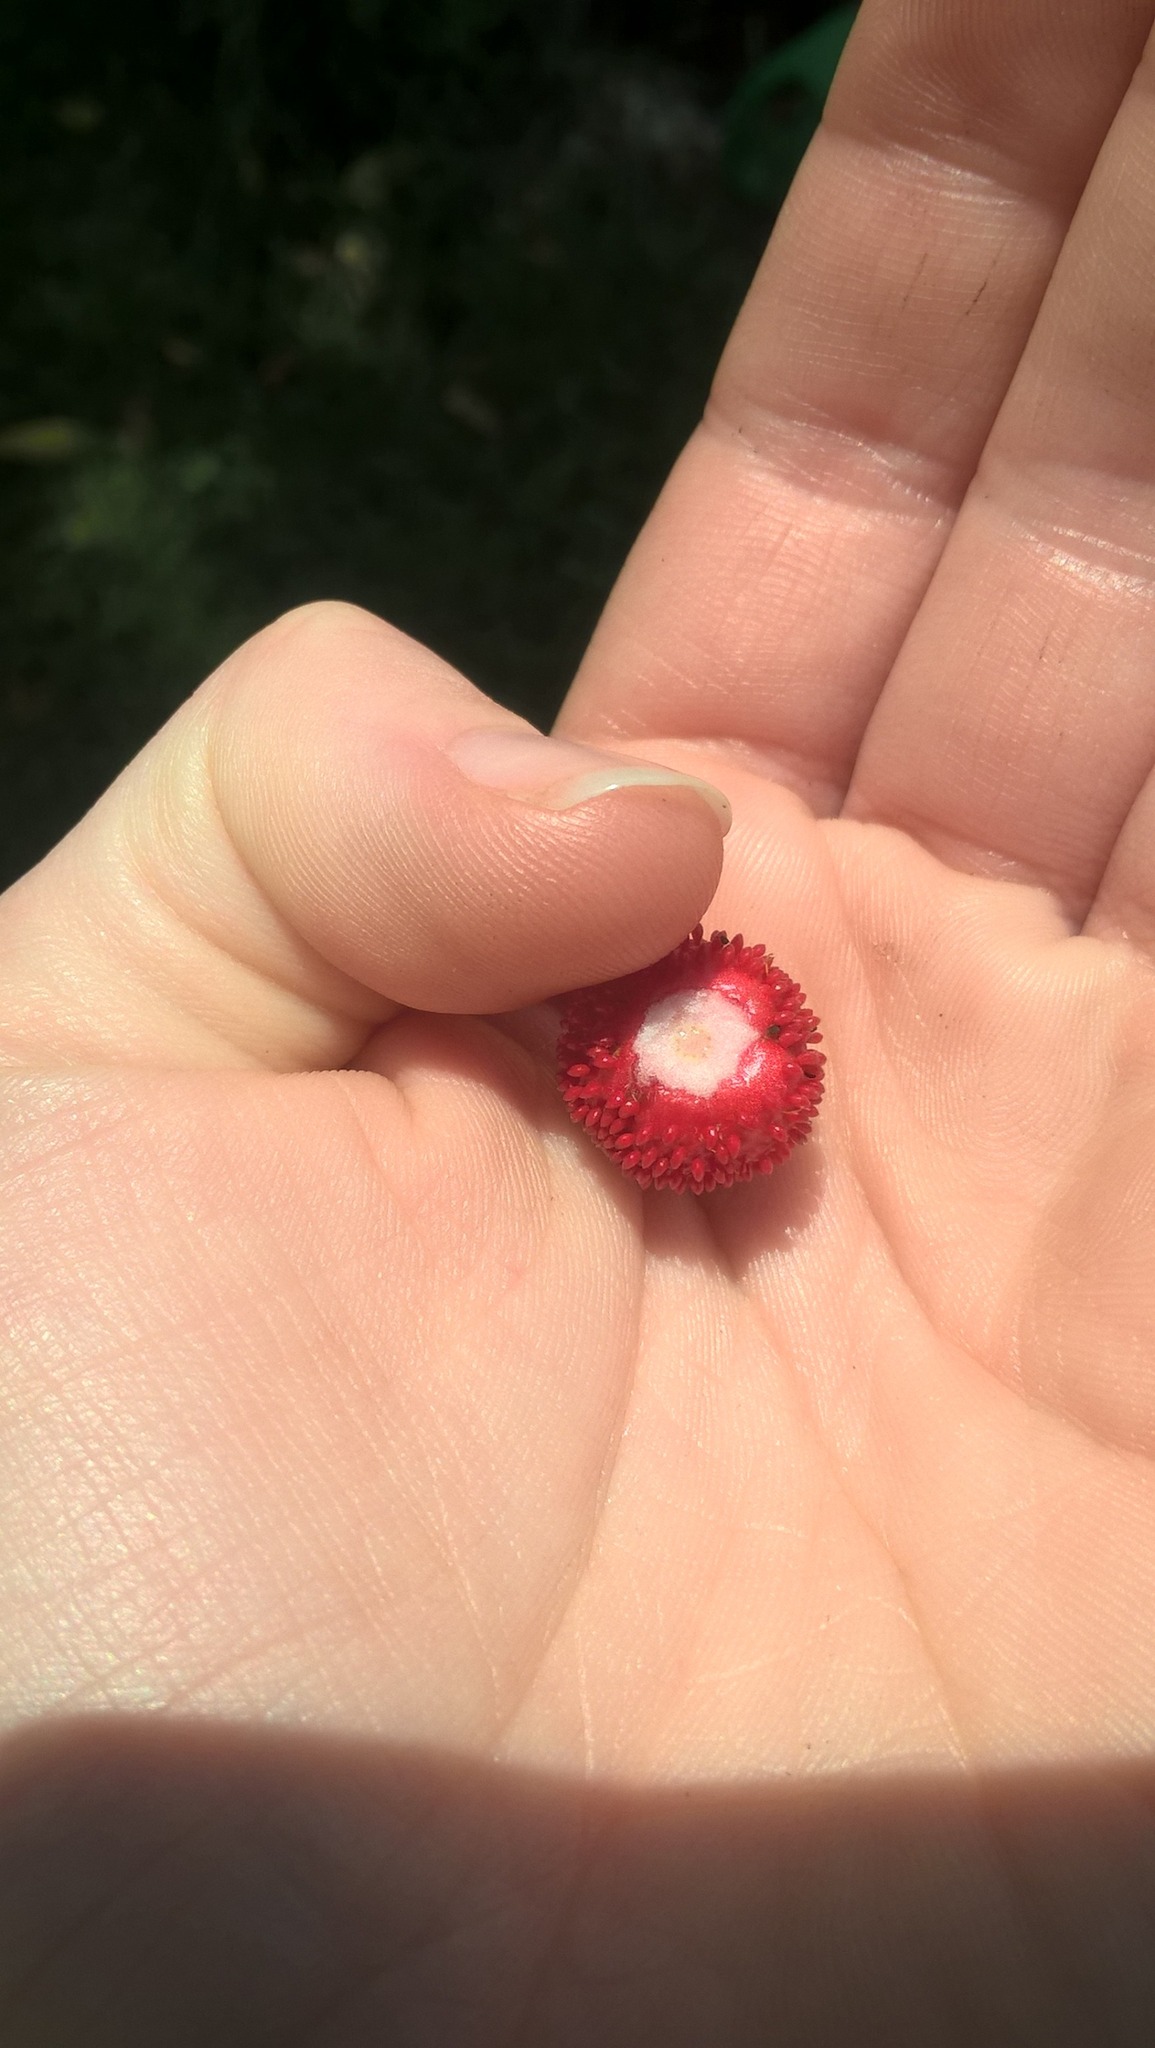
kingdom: Plantae
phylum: Tracheophyta
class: Magnoliopsida
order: Rosales
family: Rosaceae
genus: Potentilla
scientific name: Potentilla indica
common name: Yellow-flowered strawberry
